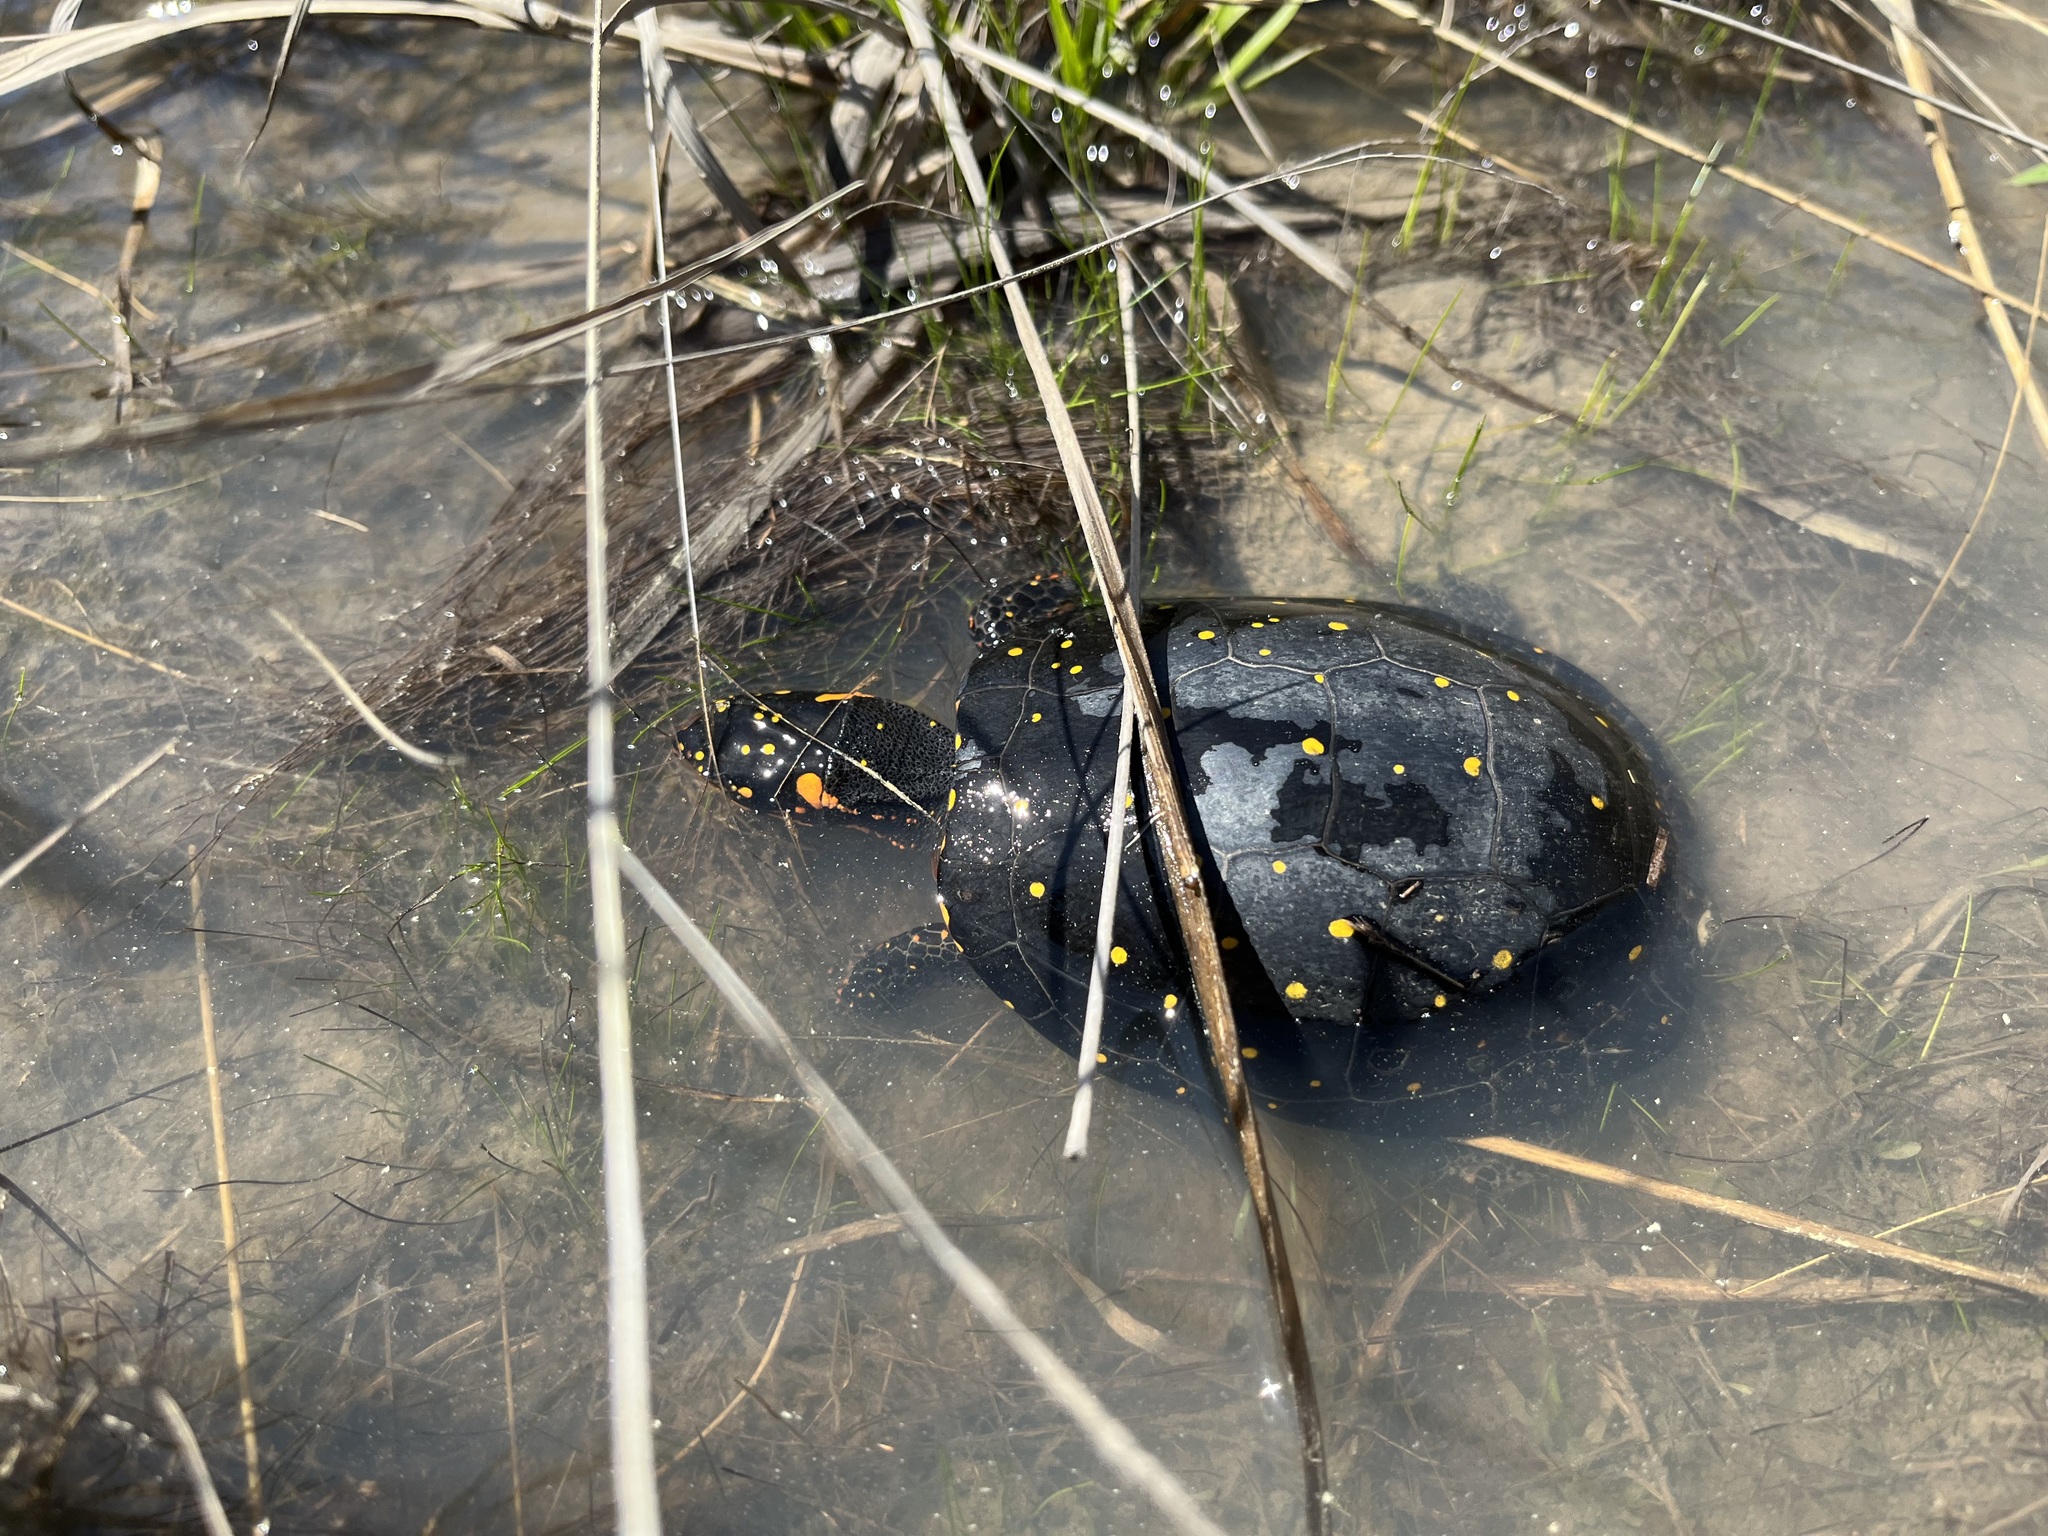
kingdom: Animalia
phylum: Chordata
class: Testudines
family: Emydidae
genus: Clemmys
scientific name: Clemmys guttata
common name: Spotted turtle
